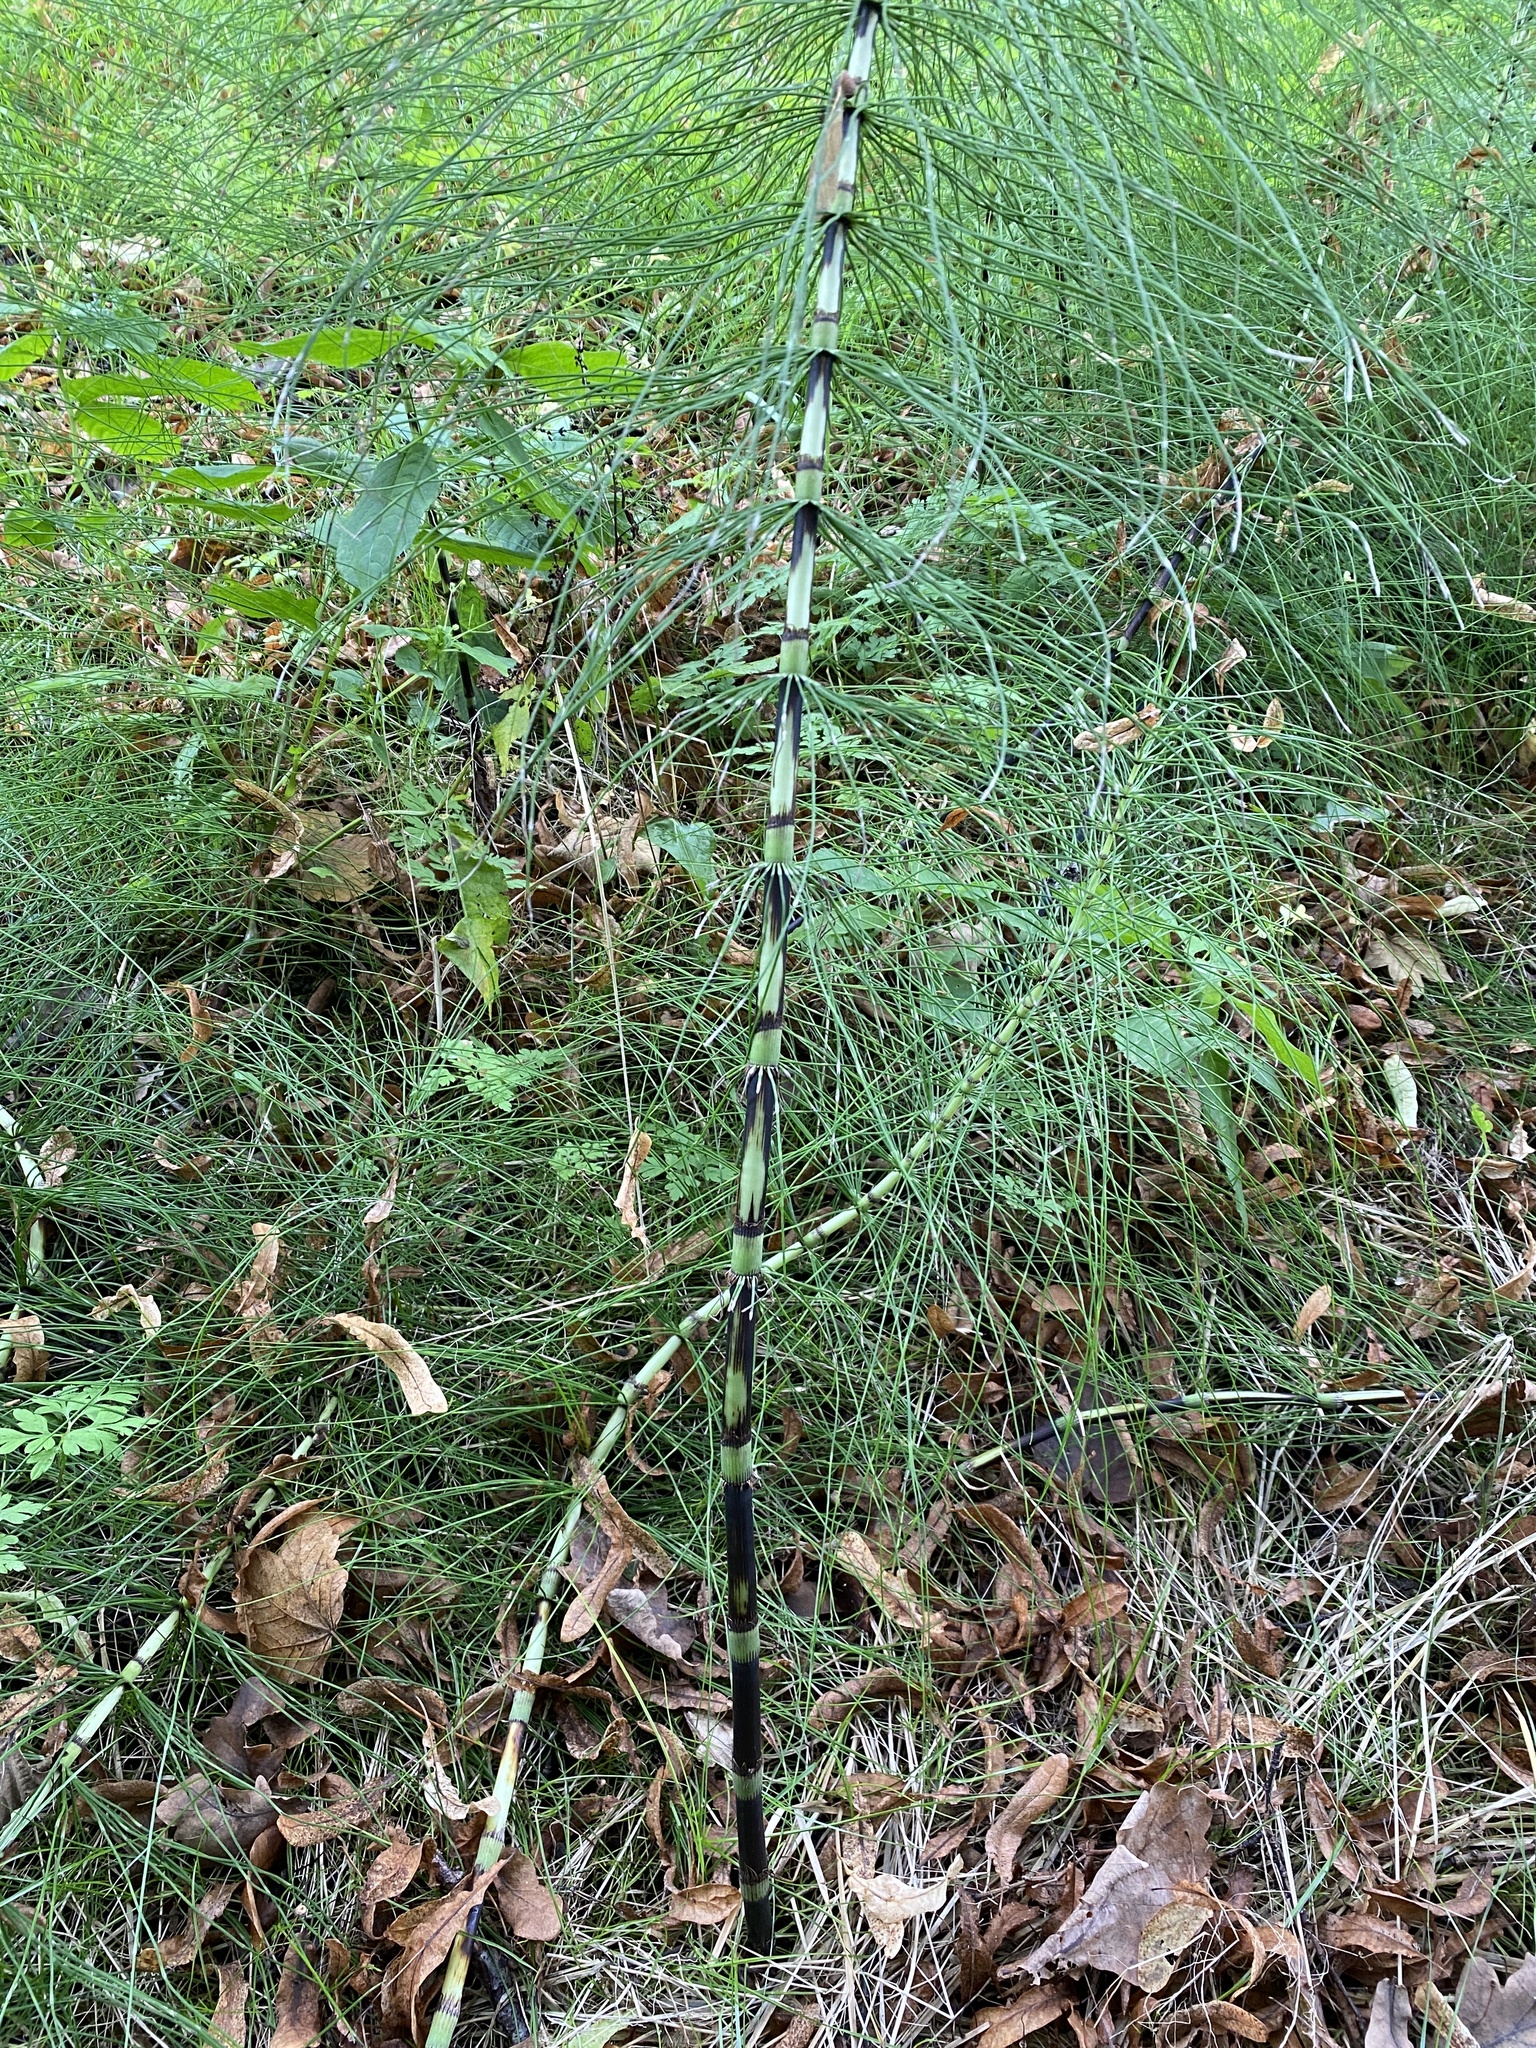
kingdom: Plantae
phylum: Tracheophyta
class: Polypodiopsida
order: Equisetales
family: Equisetaceae
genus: Equisetum
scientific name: Equisetum telmateia
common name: Great horsetail
